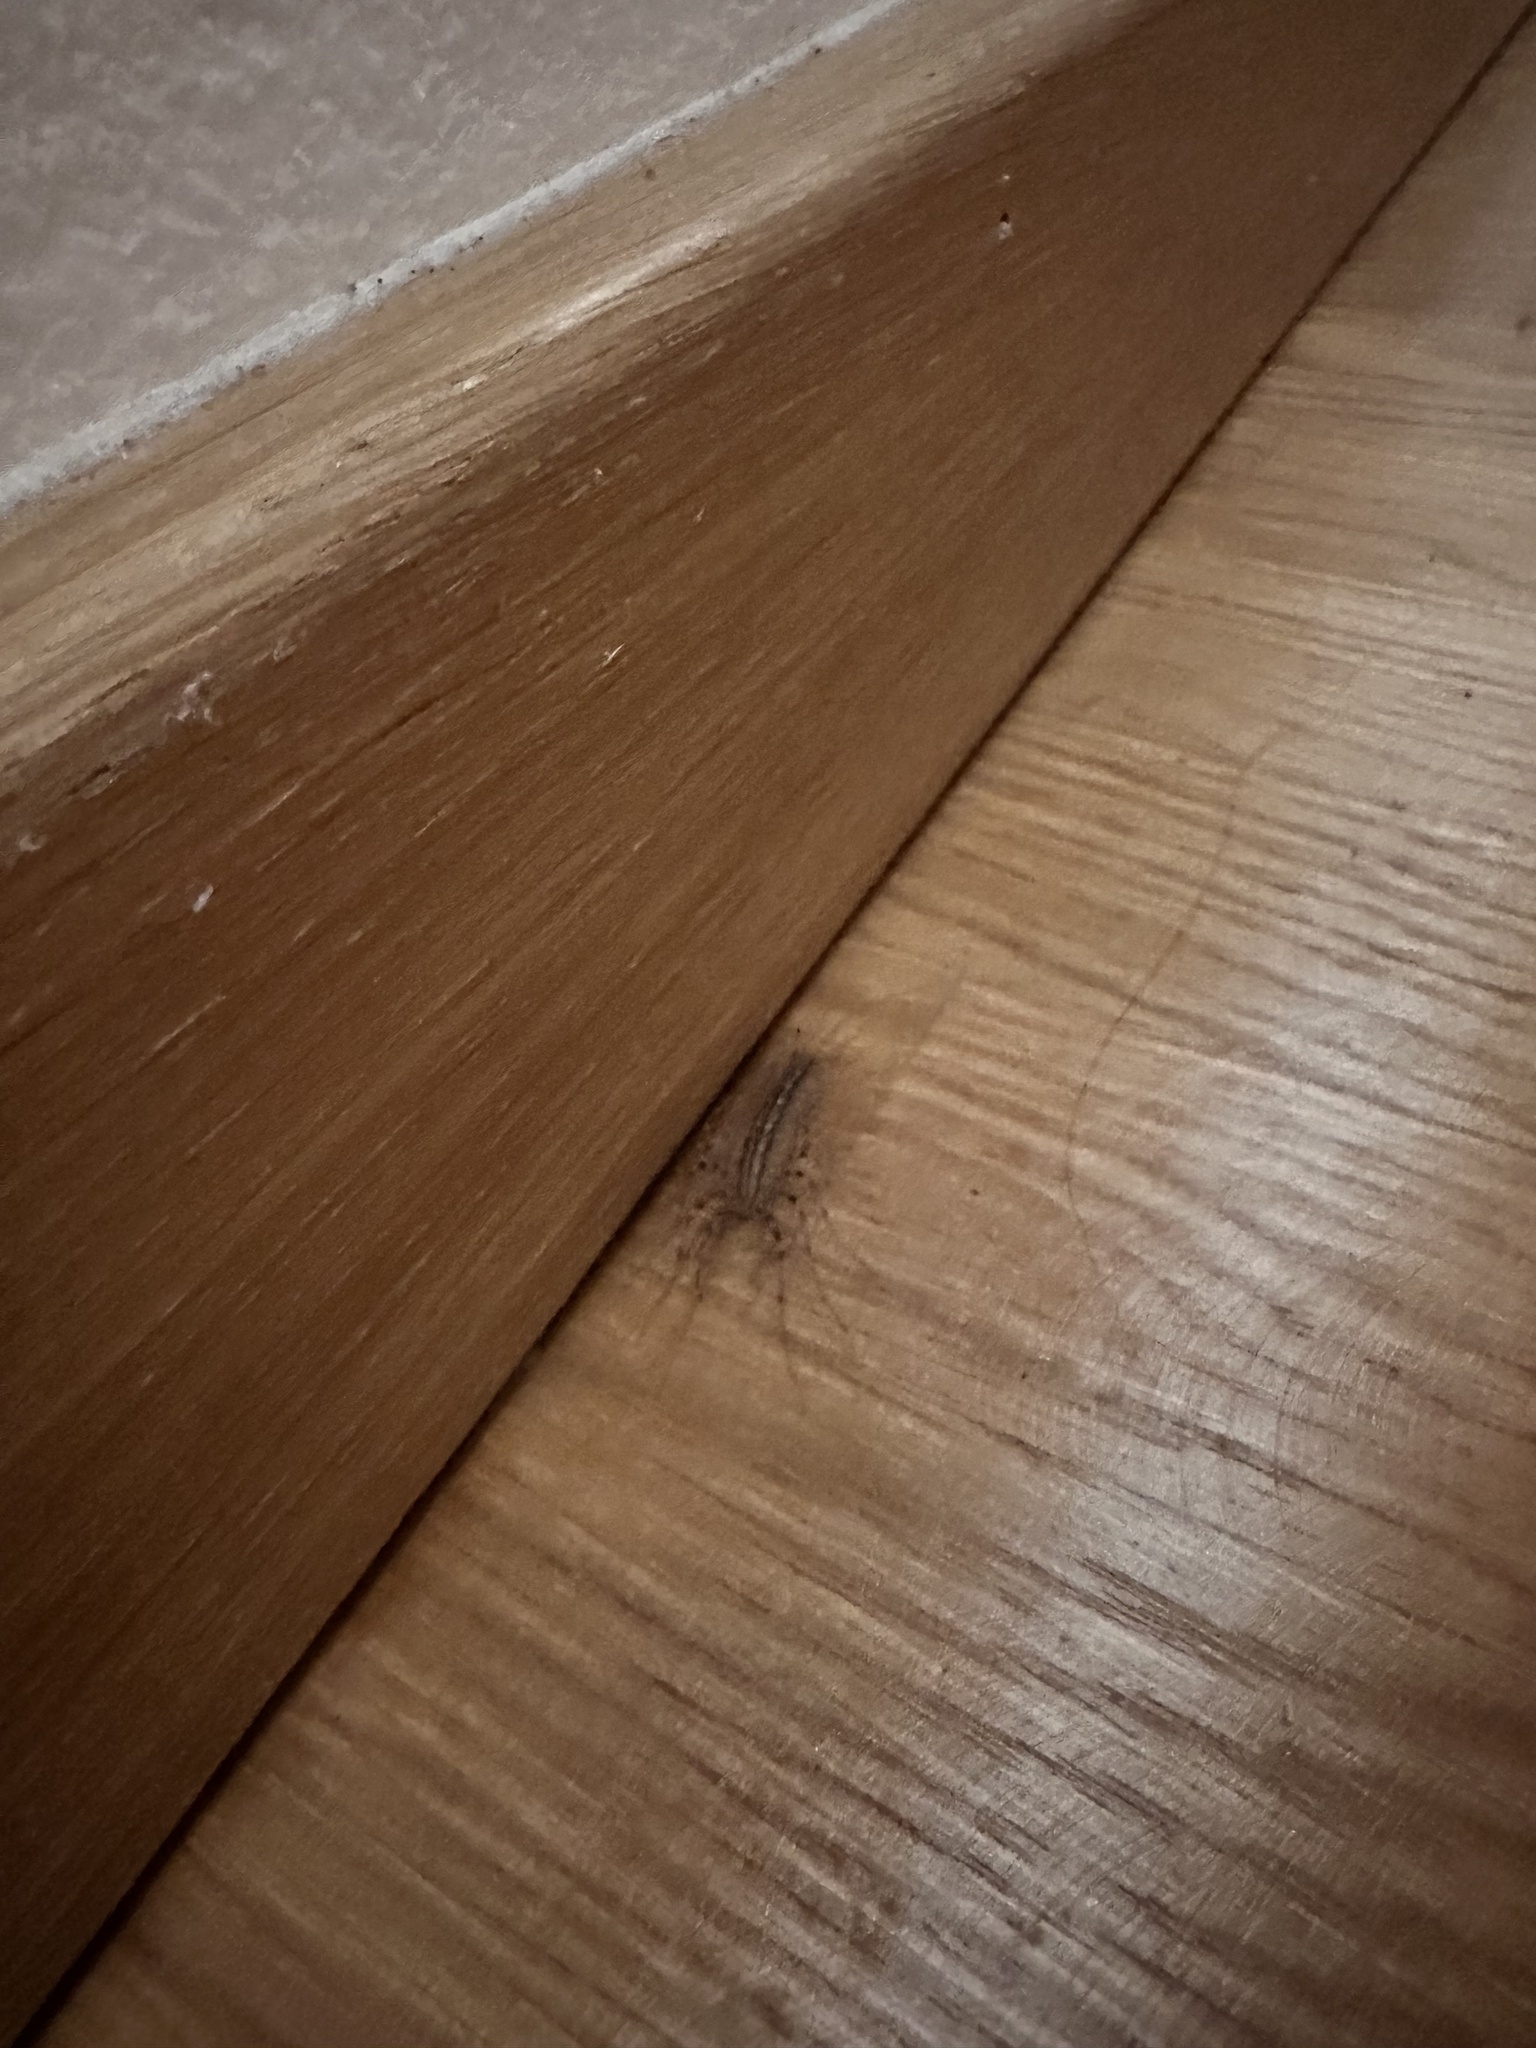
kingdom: Animalia
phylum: Arthropoda
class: Chilopoda
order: Scutigeromorpha
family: Scutigeridae
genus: Scutigera
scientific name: Scutigera coleoptrata
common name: House centipede
